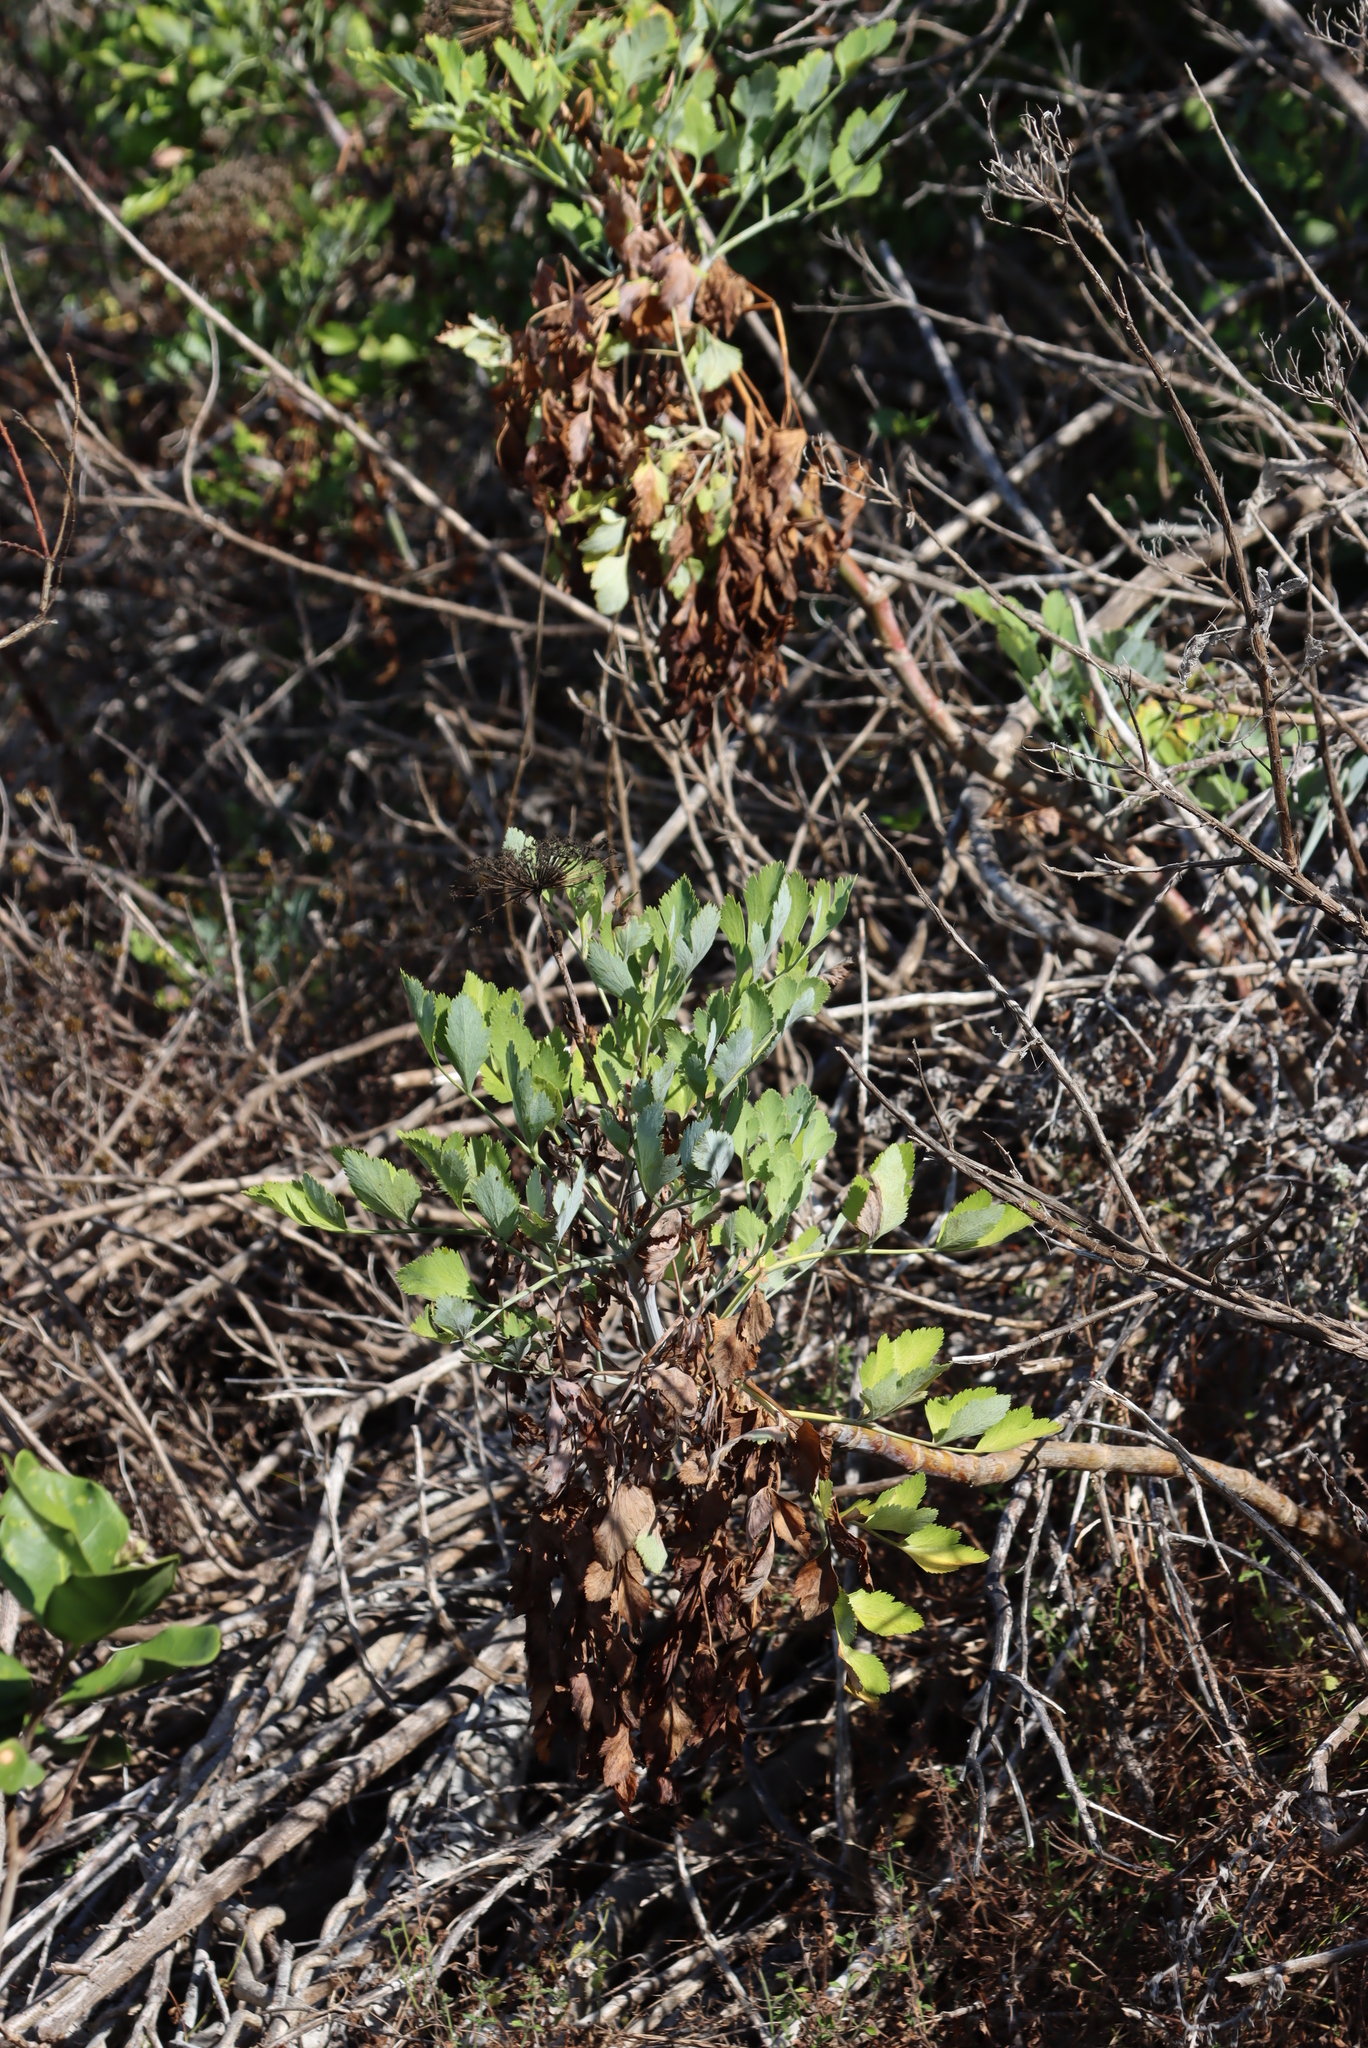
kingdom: Plantae
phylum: Tracheophyta
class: Magnoliopsida
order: Apiales
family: Apiaceae
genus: Notobubon
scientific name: Notobubon galbanum
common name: Blisterbush
